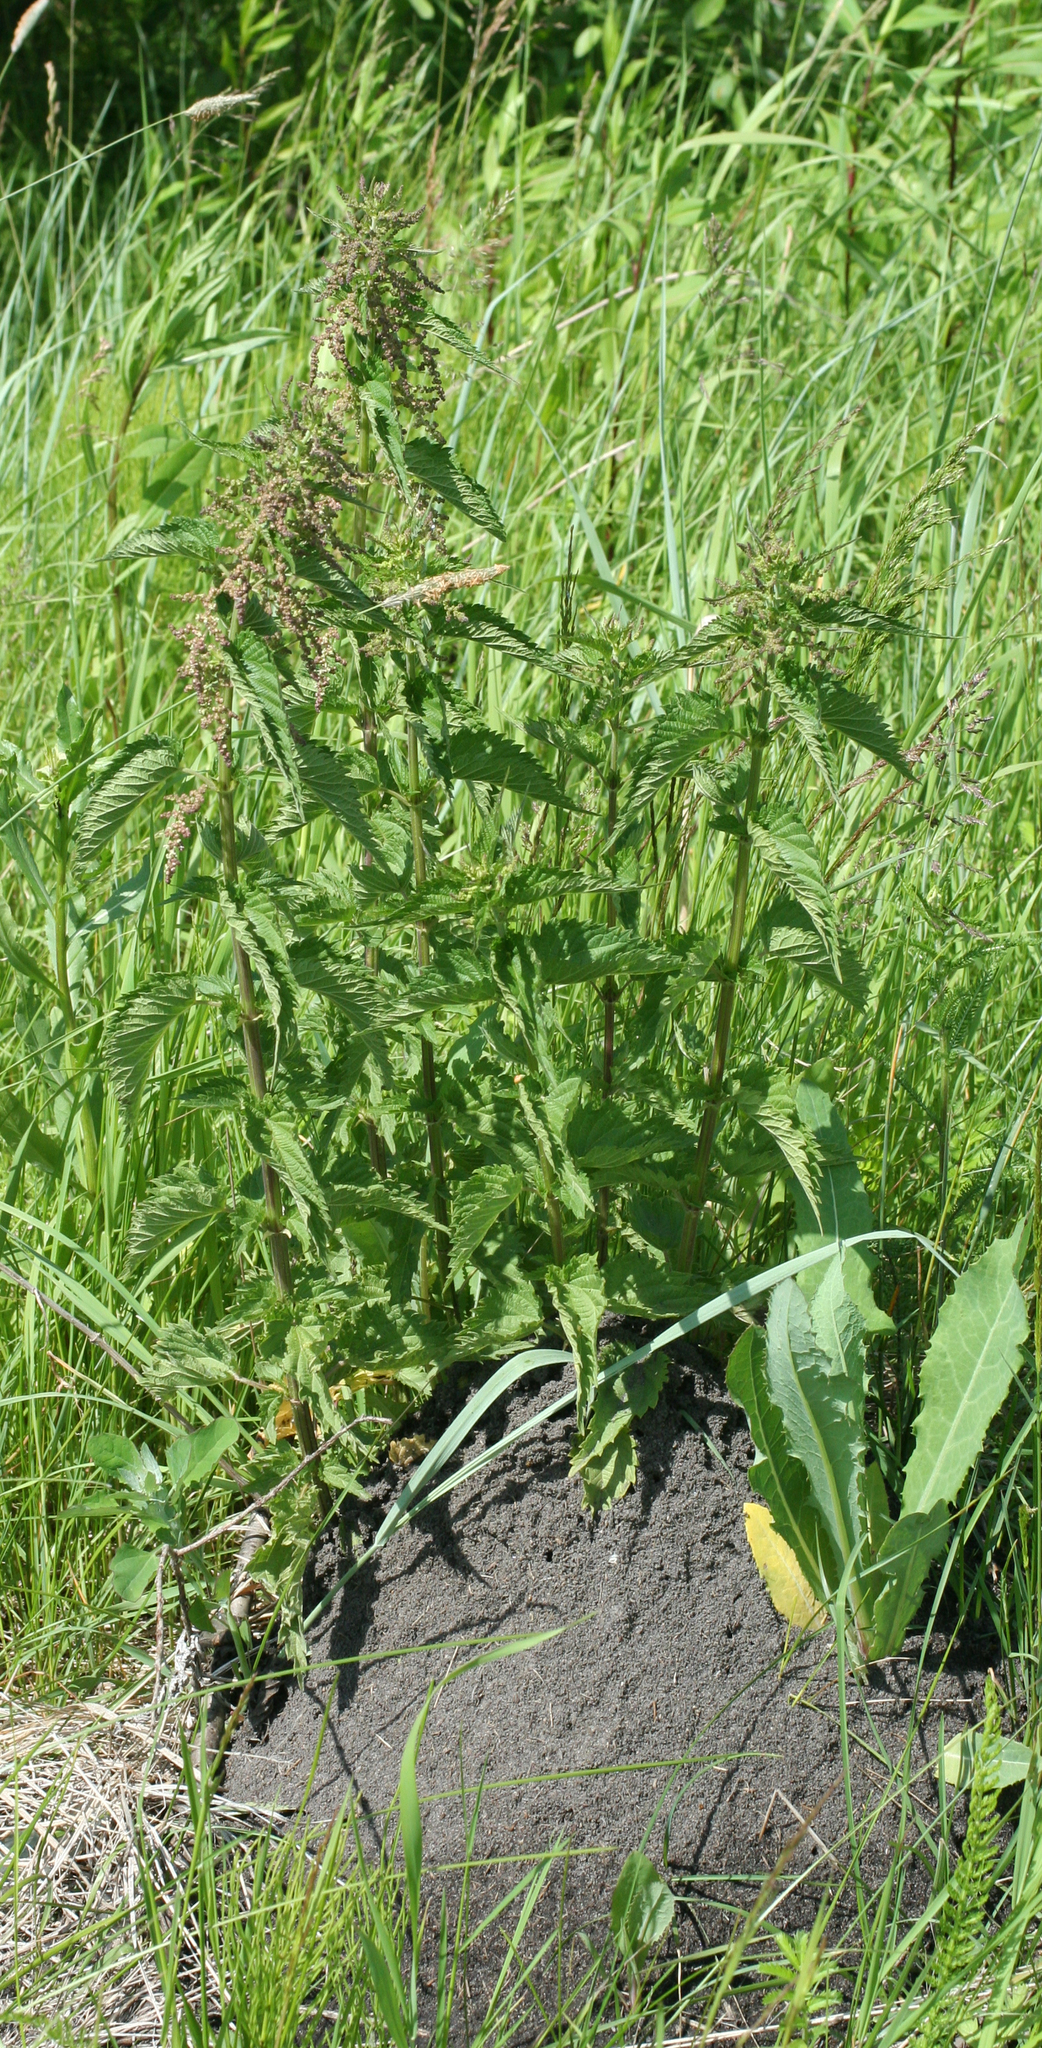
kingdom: Plantae
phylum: Tracheophyta
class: Magnoliopsida
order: Rosales
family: Urticaceae
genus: Urtica
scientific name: Urtica dioica
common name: Common nettle
